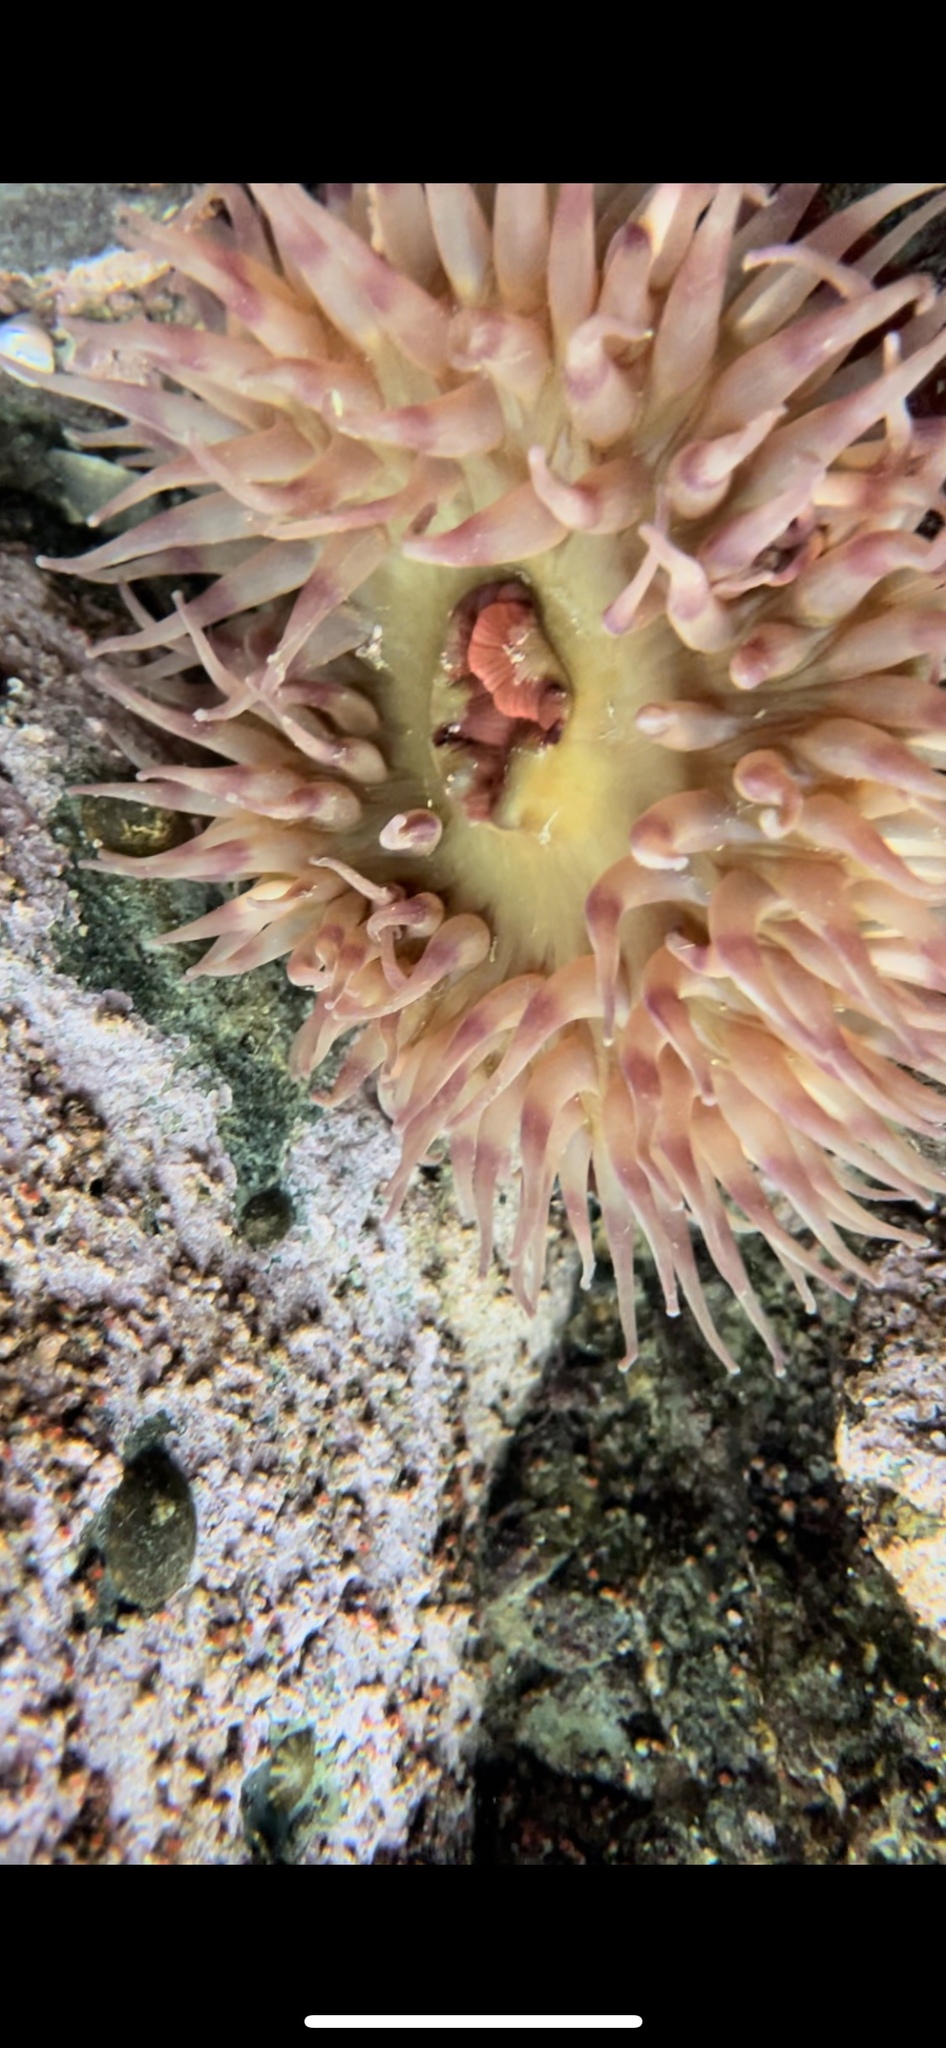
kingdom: Animalia
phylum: Cnidaria
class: Anthozoa
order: Actiniaria
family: Actiniidae
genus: Urticina
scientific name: Urticina grebelnyi
